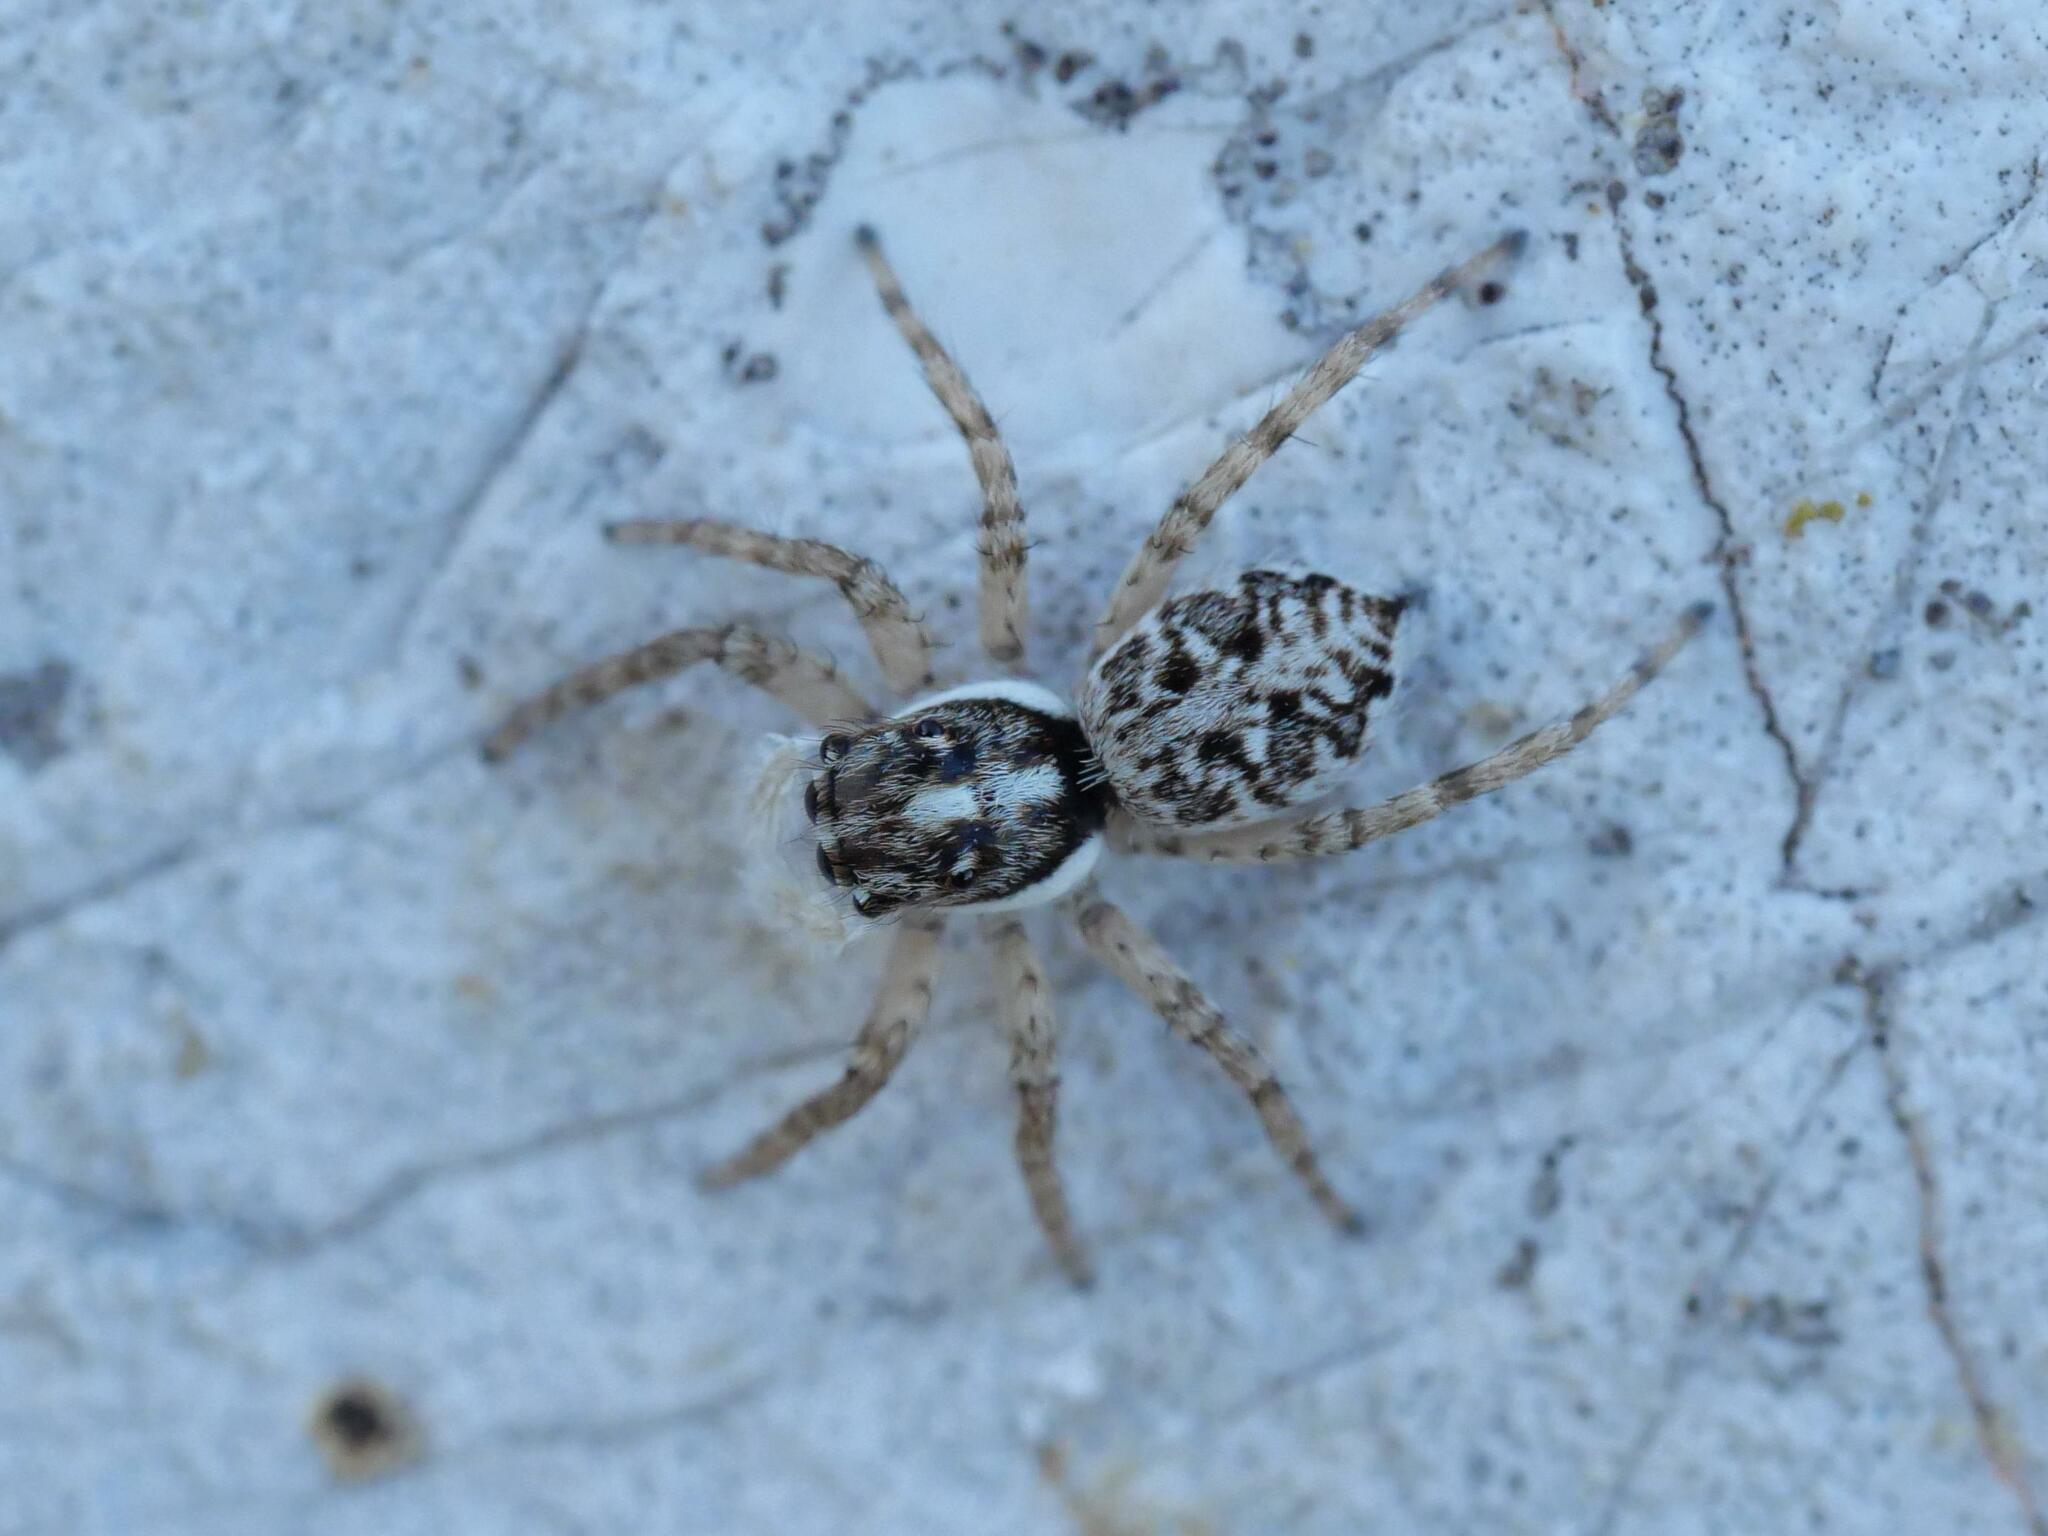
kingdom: Animalia
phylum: Arthropoda
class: Arachnida
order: Araneae
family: Salticidae
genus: Menemerus
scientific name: Menemerus semilimbatus
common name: Jumping spider
